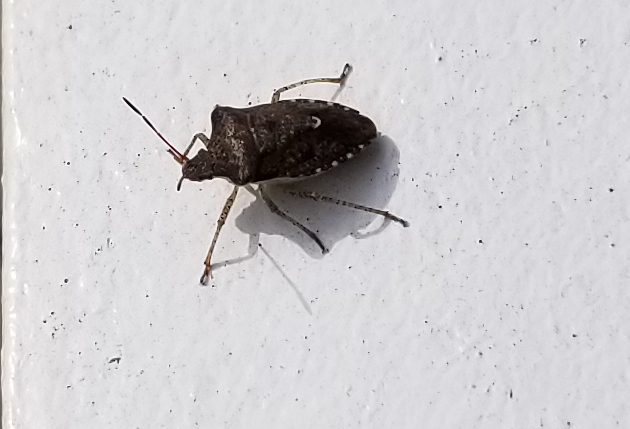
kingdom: Animalia
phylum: Arthropoda
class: Insecta
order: Hemiptera
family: Pentatomidae
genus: Euschistus
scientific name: Euschistus tristigmus
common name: Dusky stink bug
